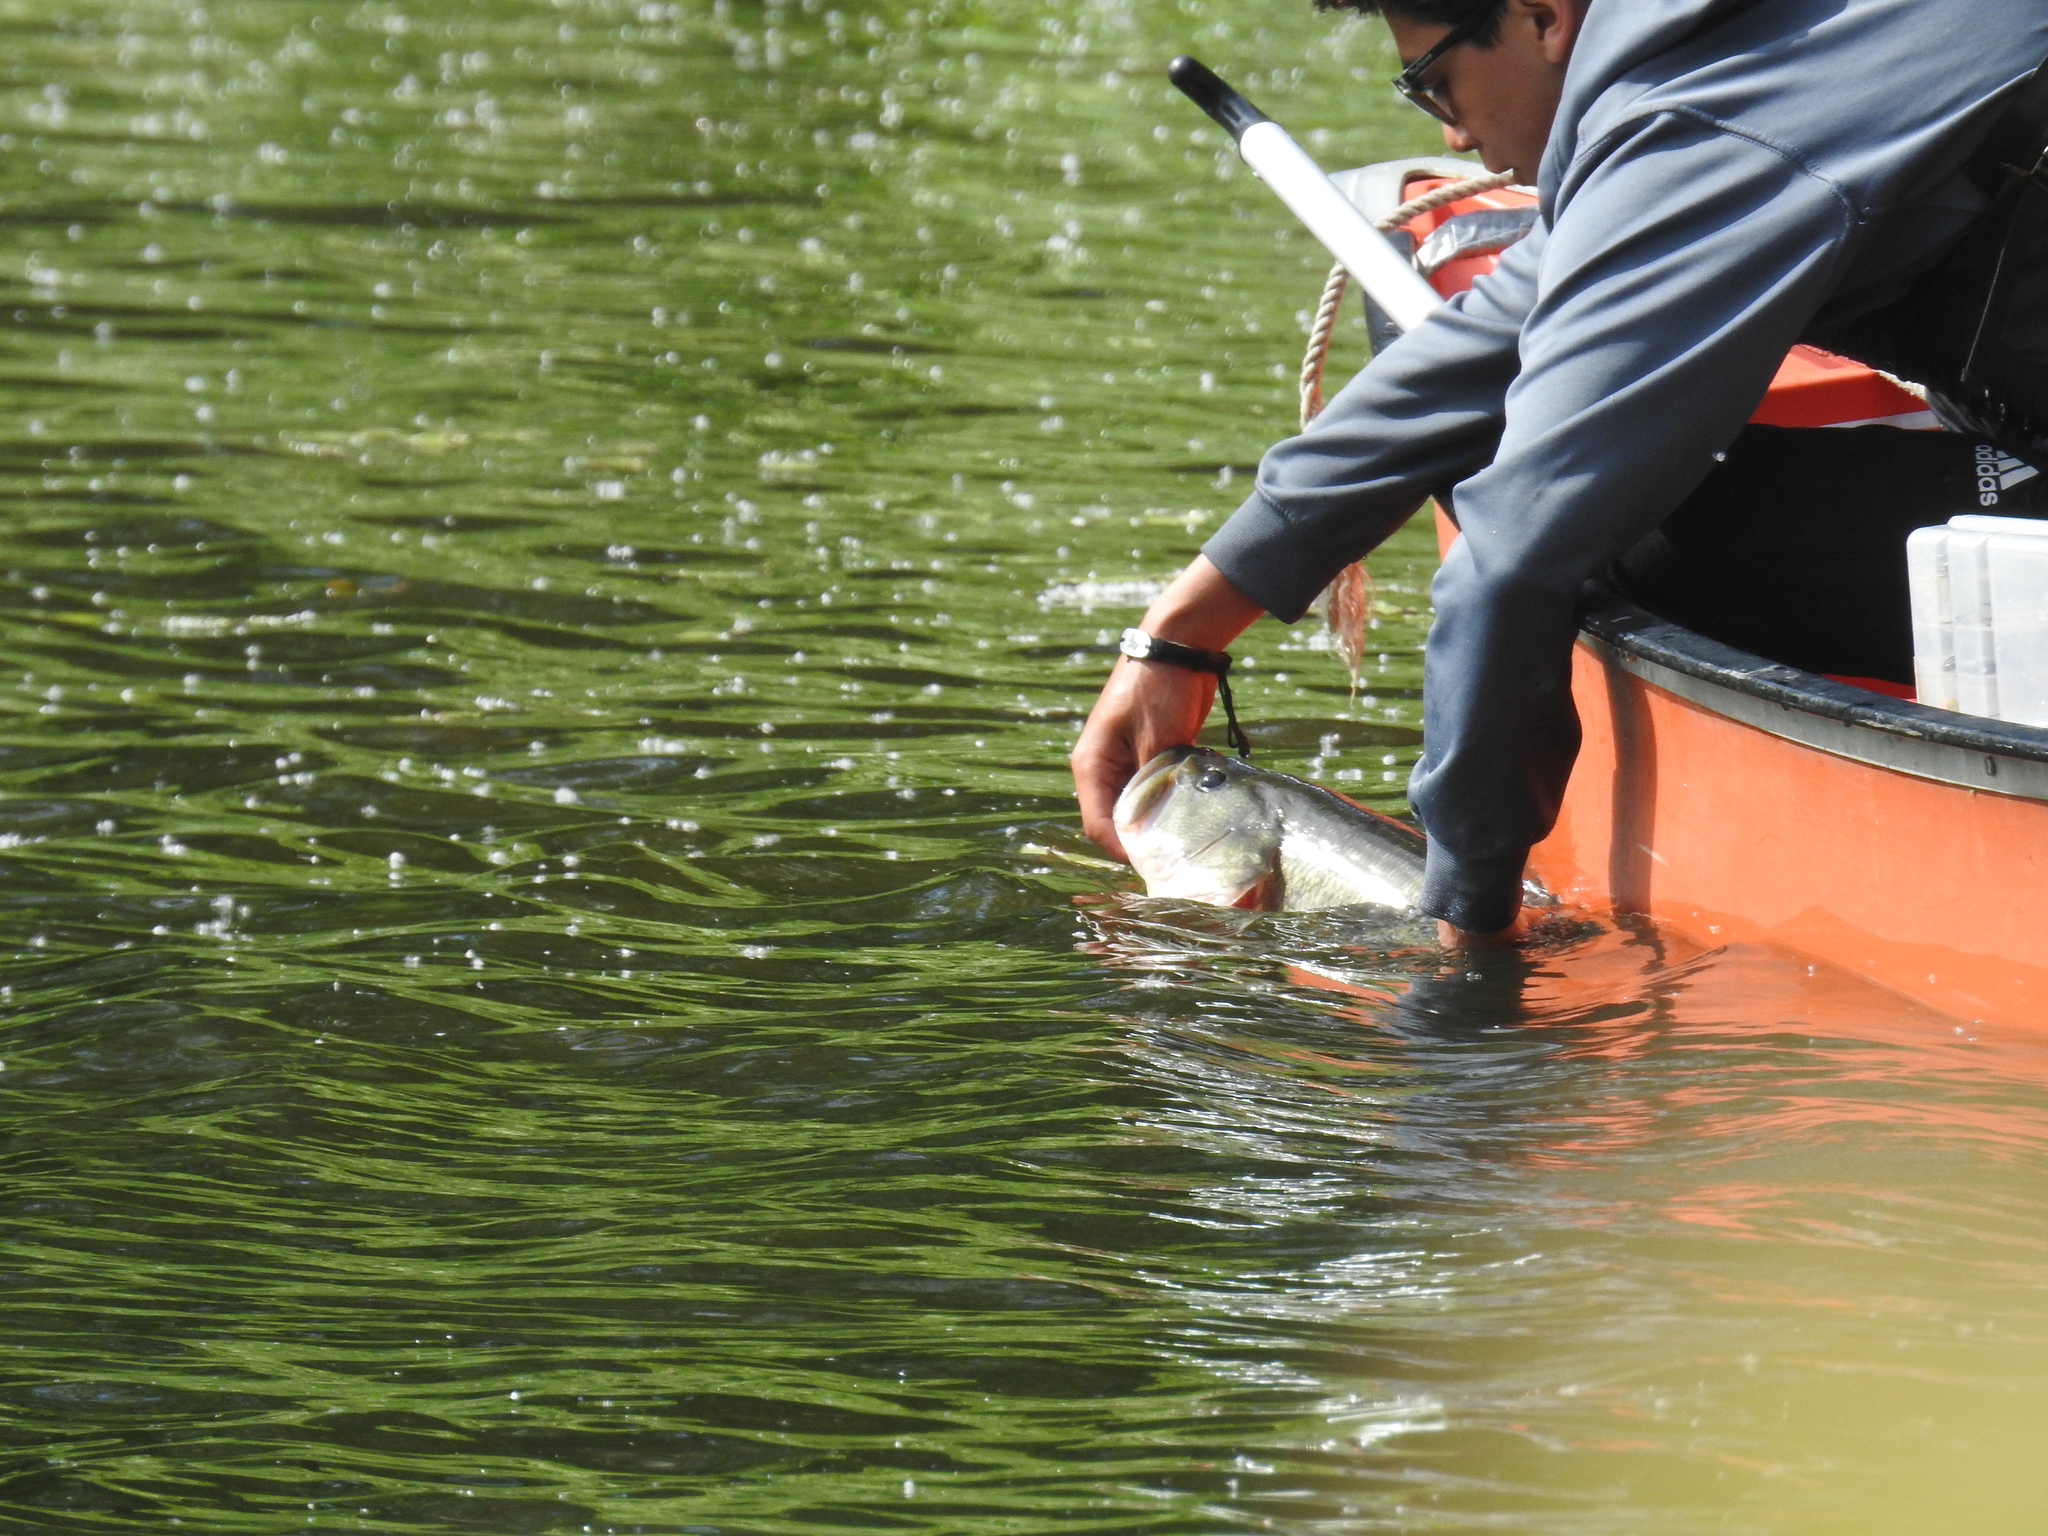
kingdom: Animalia
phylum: Chordata
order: Perciformes
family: Centrarchidae
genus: Micropterus
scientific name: Micropterus
